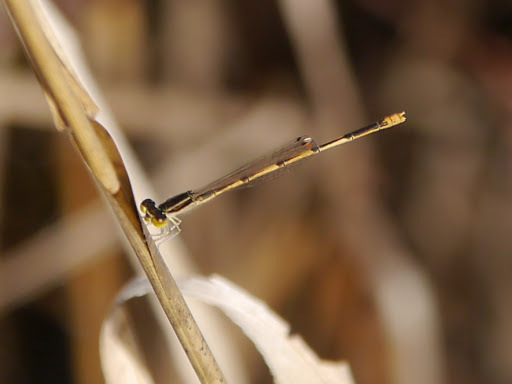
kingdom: Animalia
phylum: Arthropoda
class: Insecta
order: Odonata
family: Coenagrionidae
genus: Ischnura
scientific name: Ischnura hastata
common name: Citrine forktail
